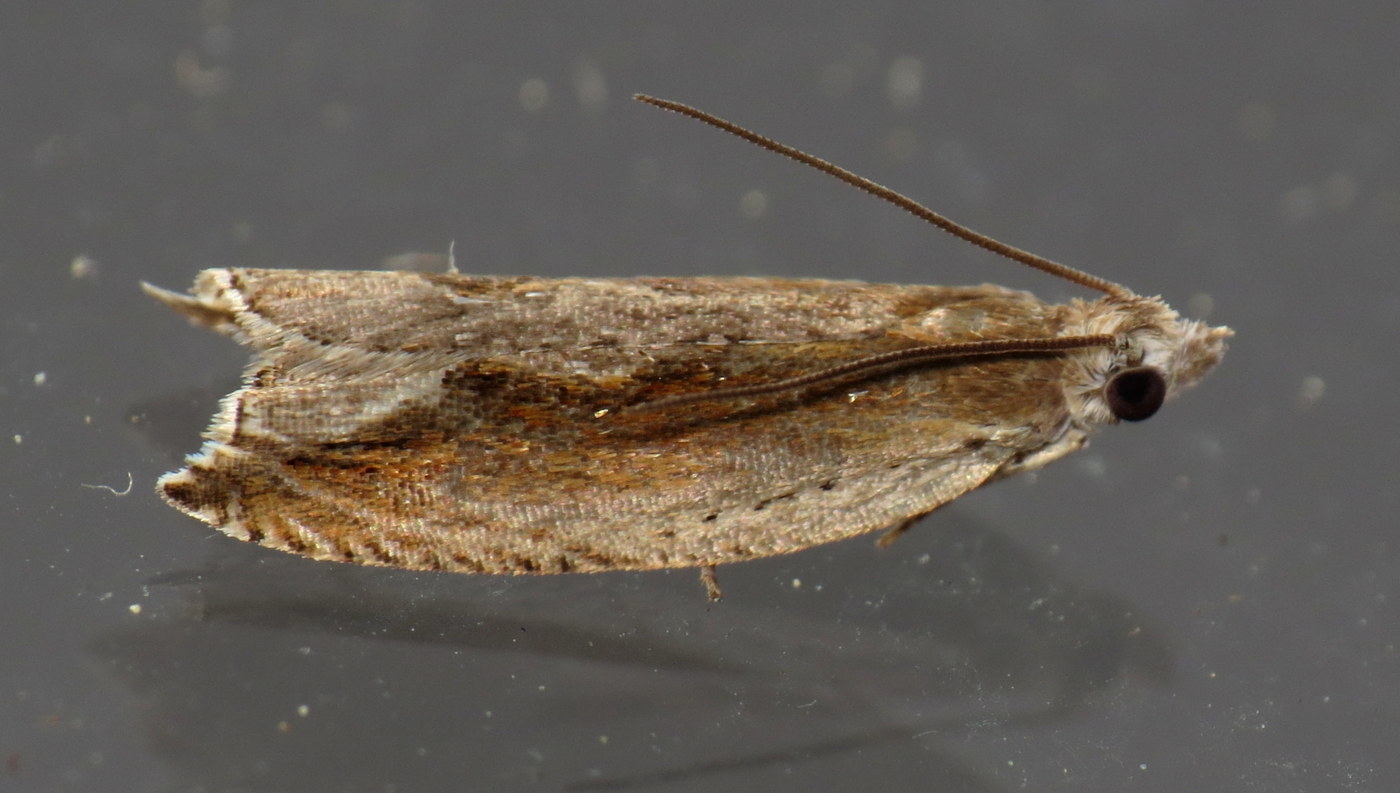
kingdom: Animalia
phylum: Arthropoda
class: Insecta
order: Lepidoptera
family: Tortricidae
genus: Ancylis
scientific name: Ancylis goodelliana
